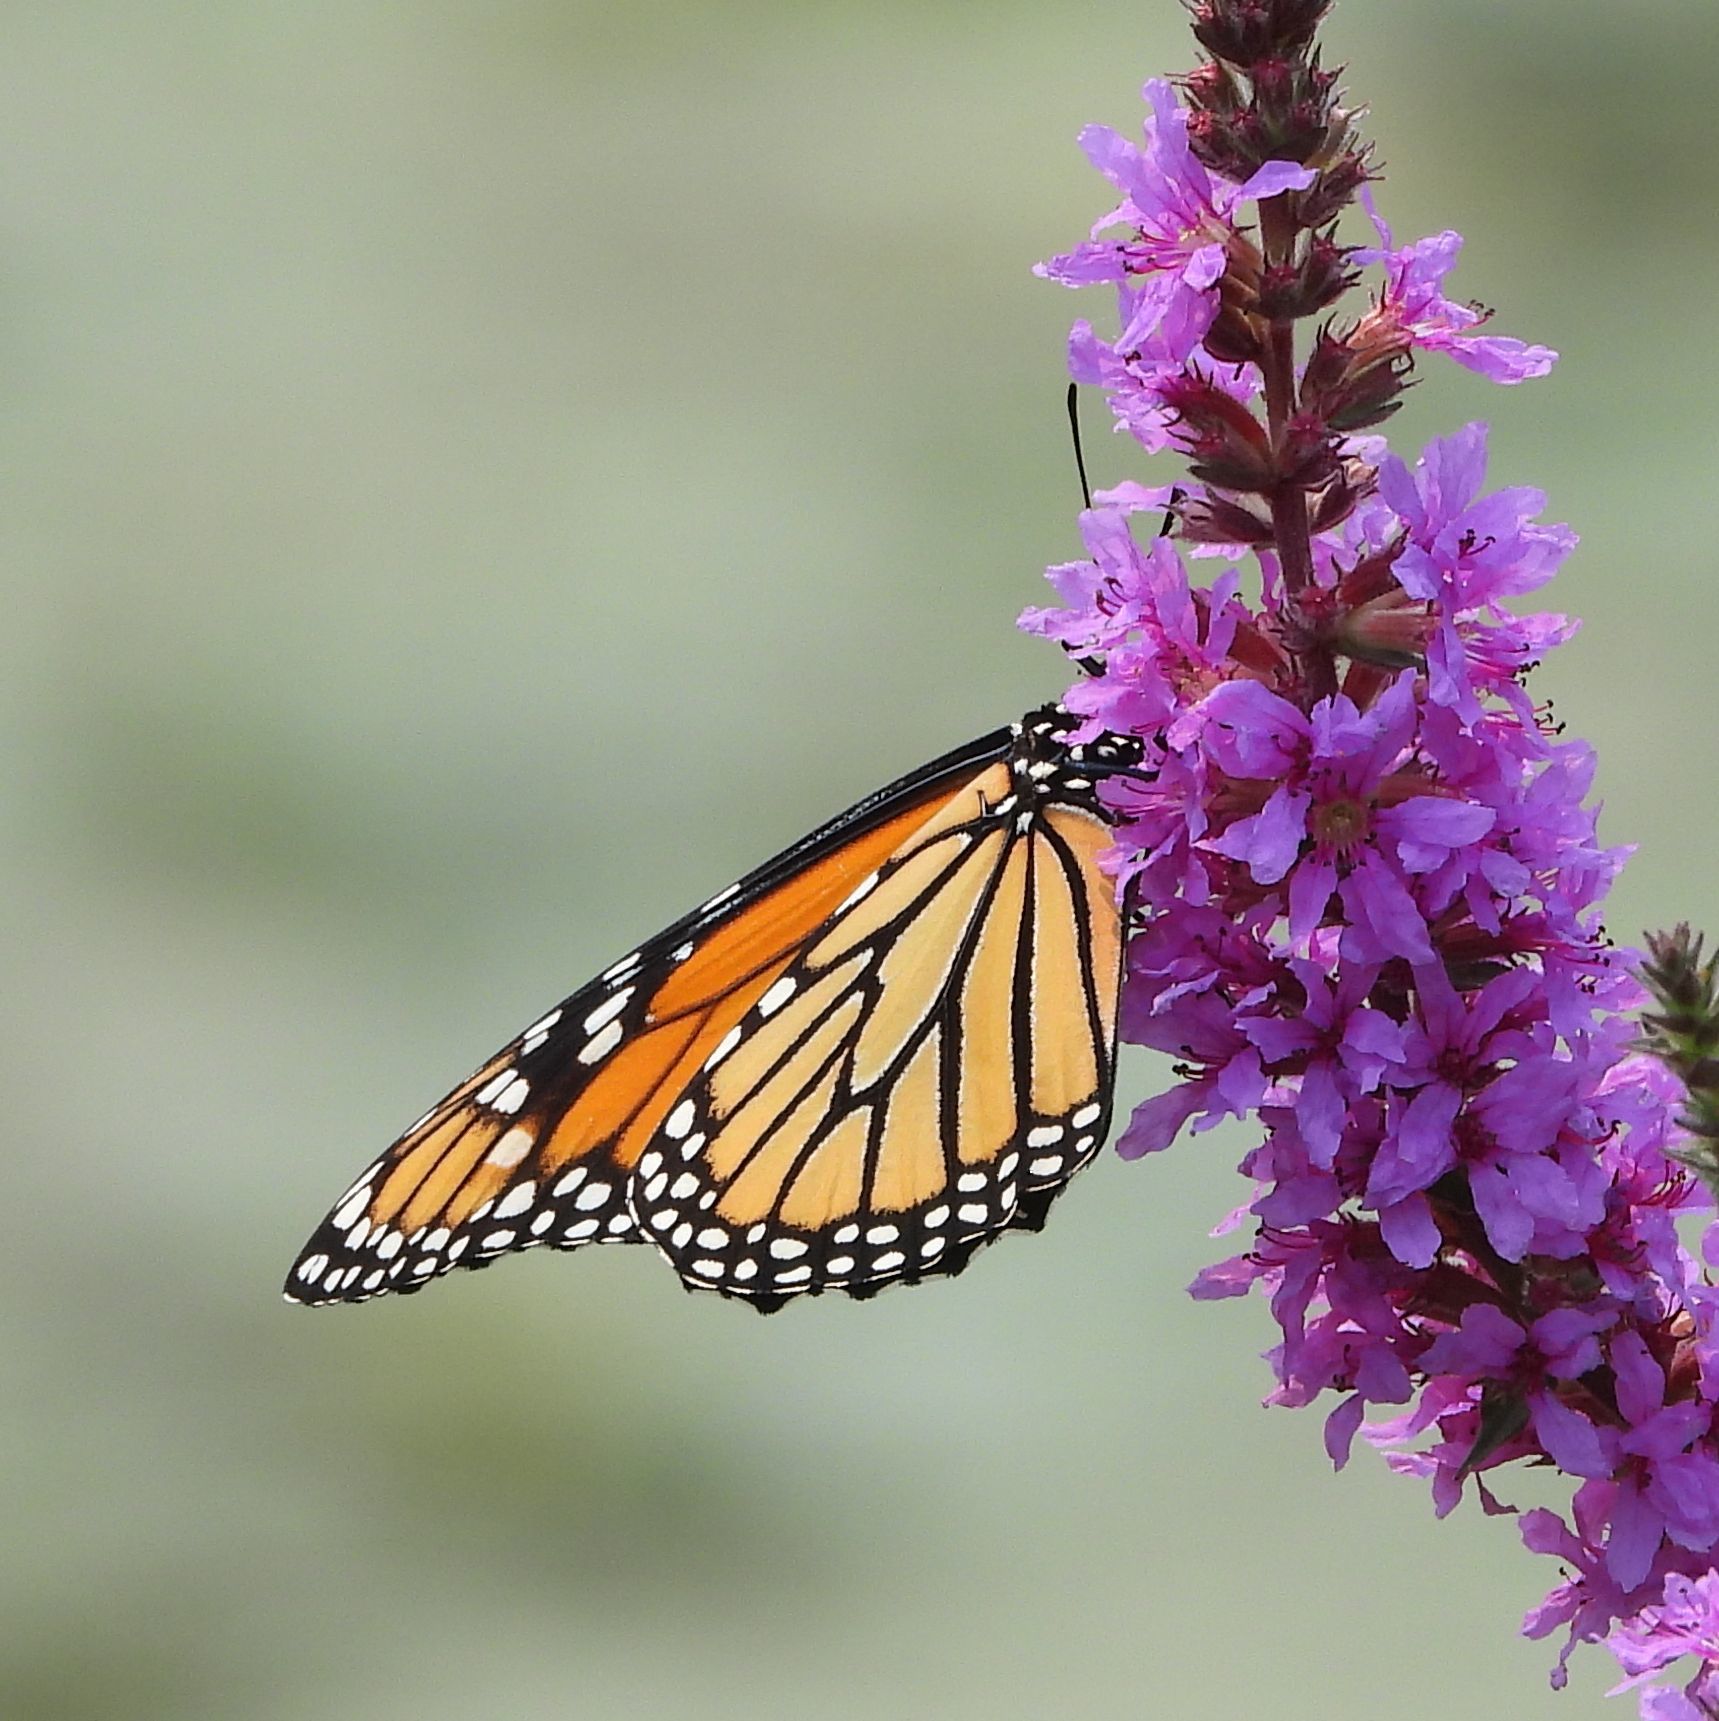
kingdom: Animalia
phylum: Arthropoda
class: Insecta
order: Lepidoptera
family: Nymphalidae
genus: Danaus
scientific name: Danaus plexippus
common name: Monarch
